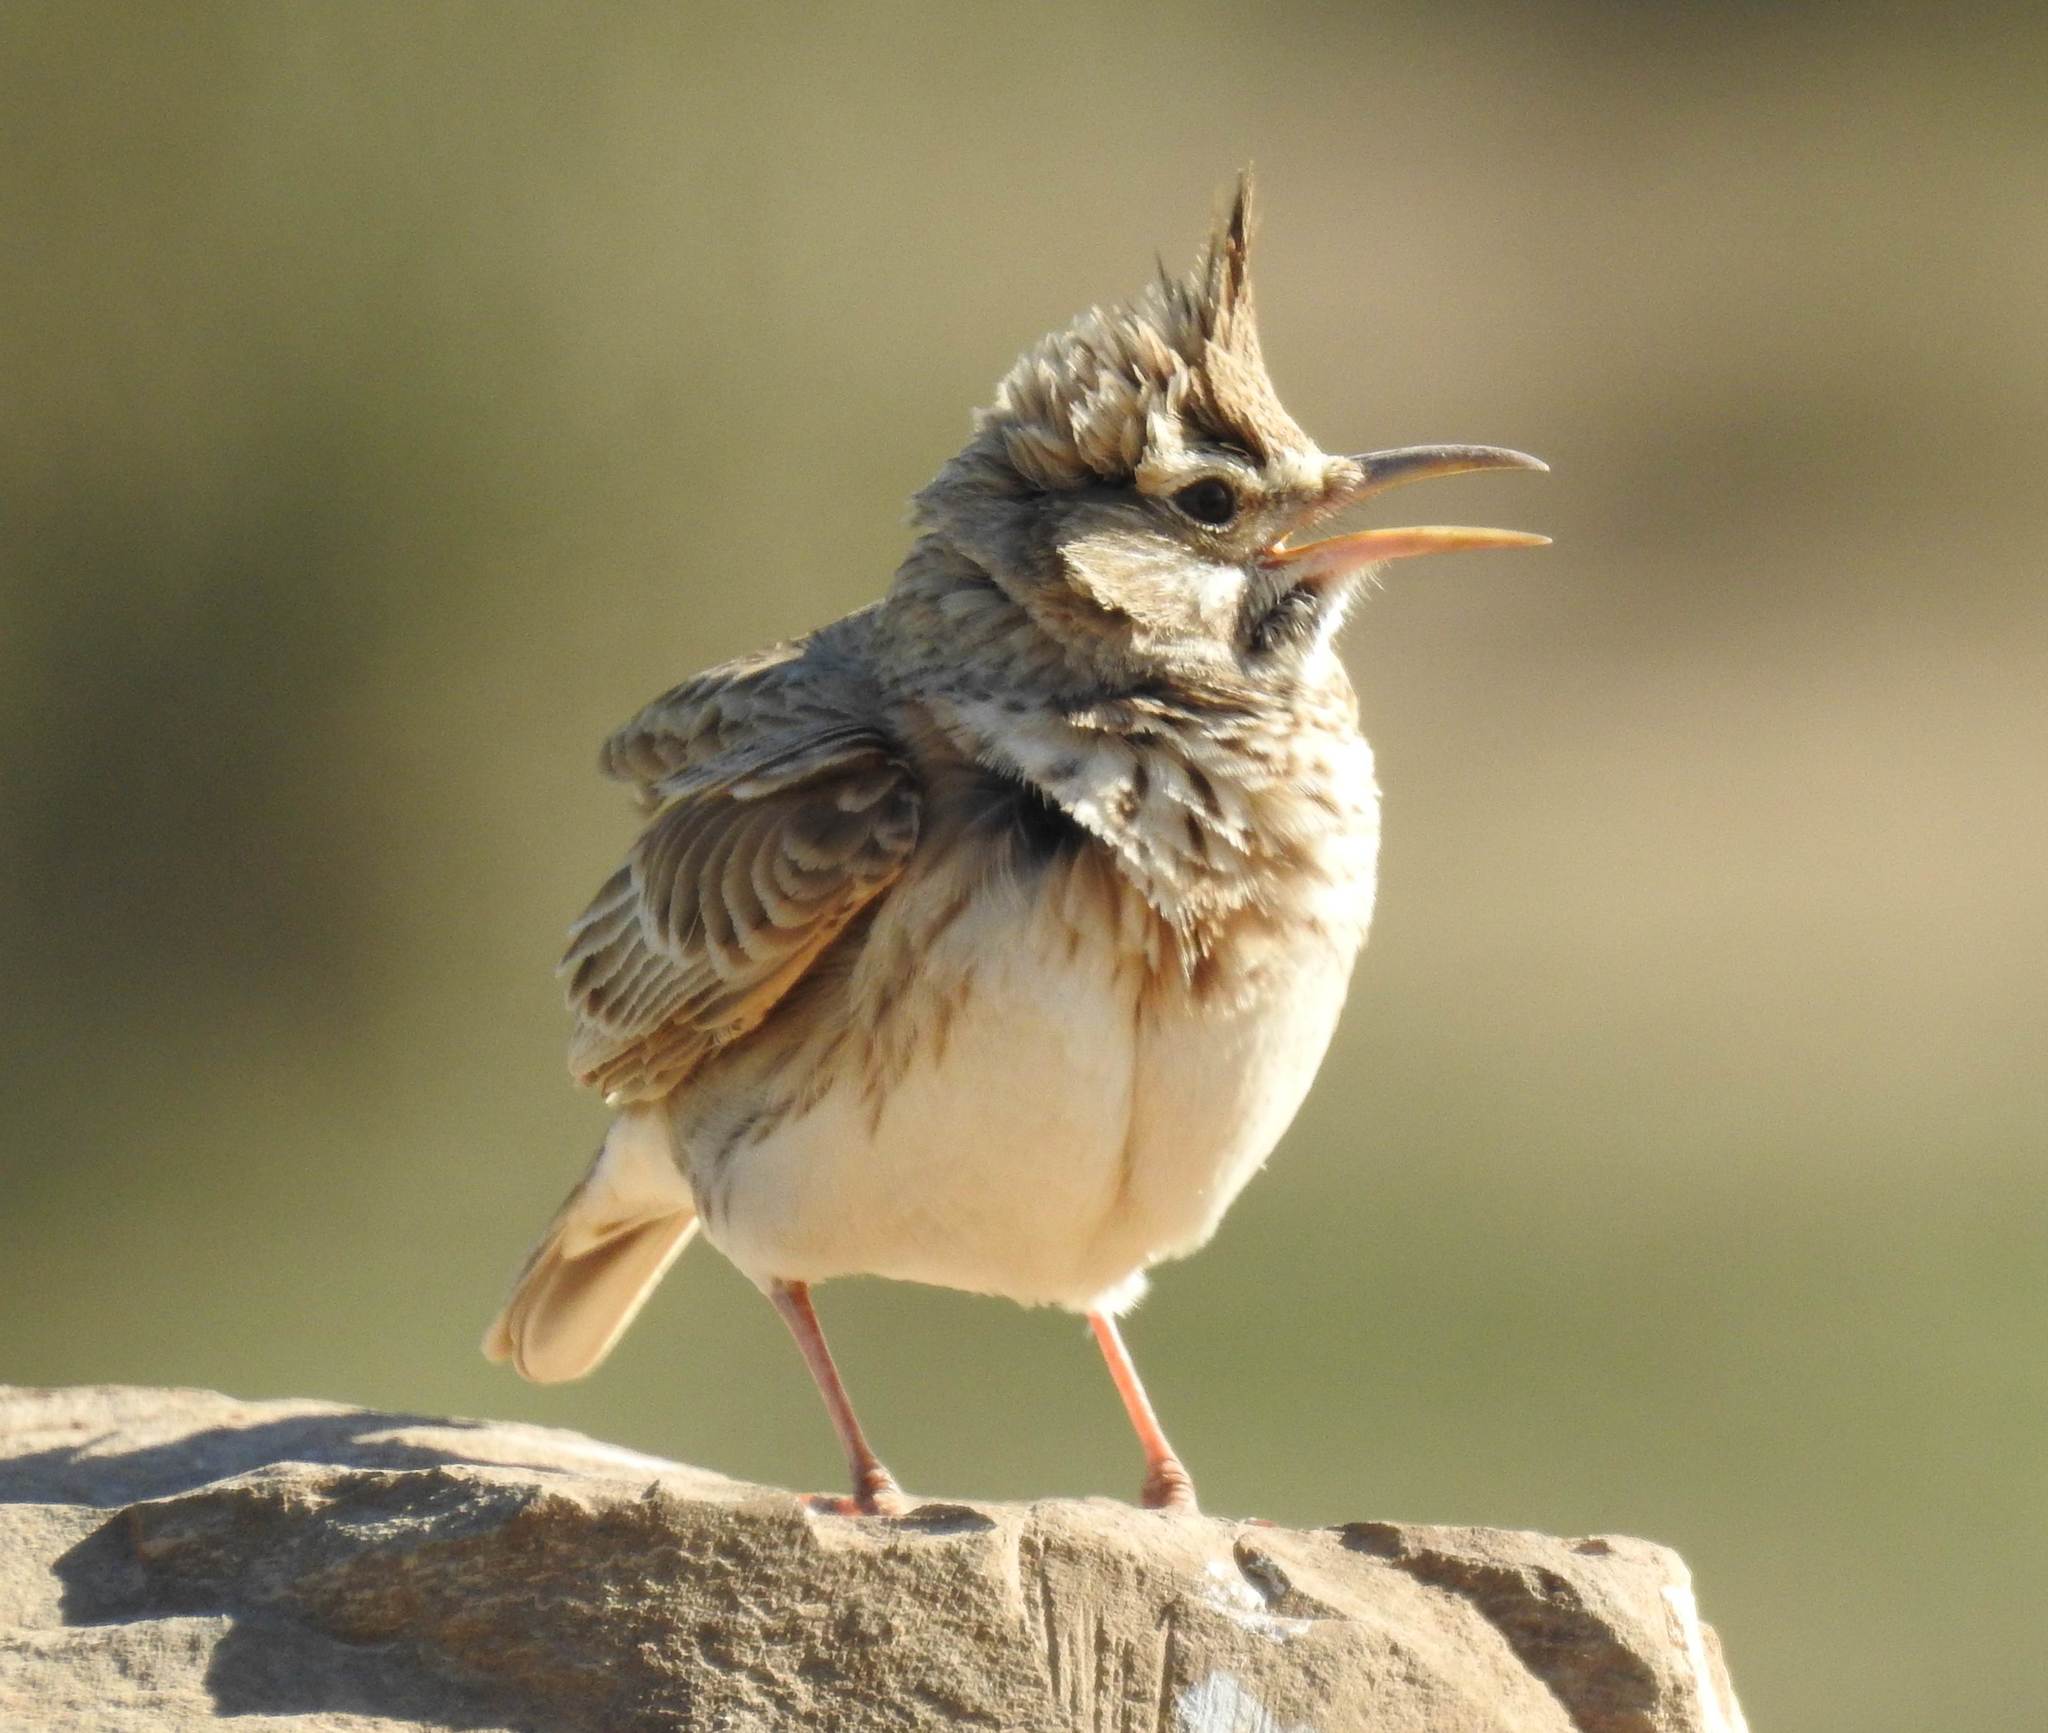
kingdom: Animalia
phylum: Chordata
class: Aves
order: Passeriformes
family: Alaudidae
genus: Galerida
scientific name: Galerida cristata
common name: Crested lark
